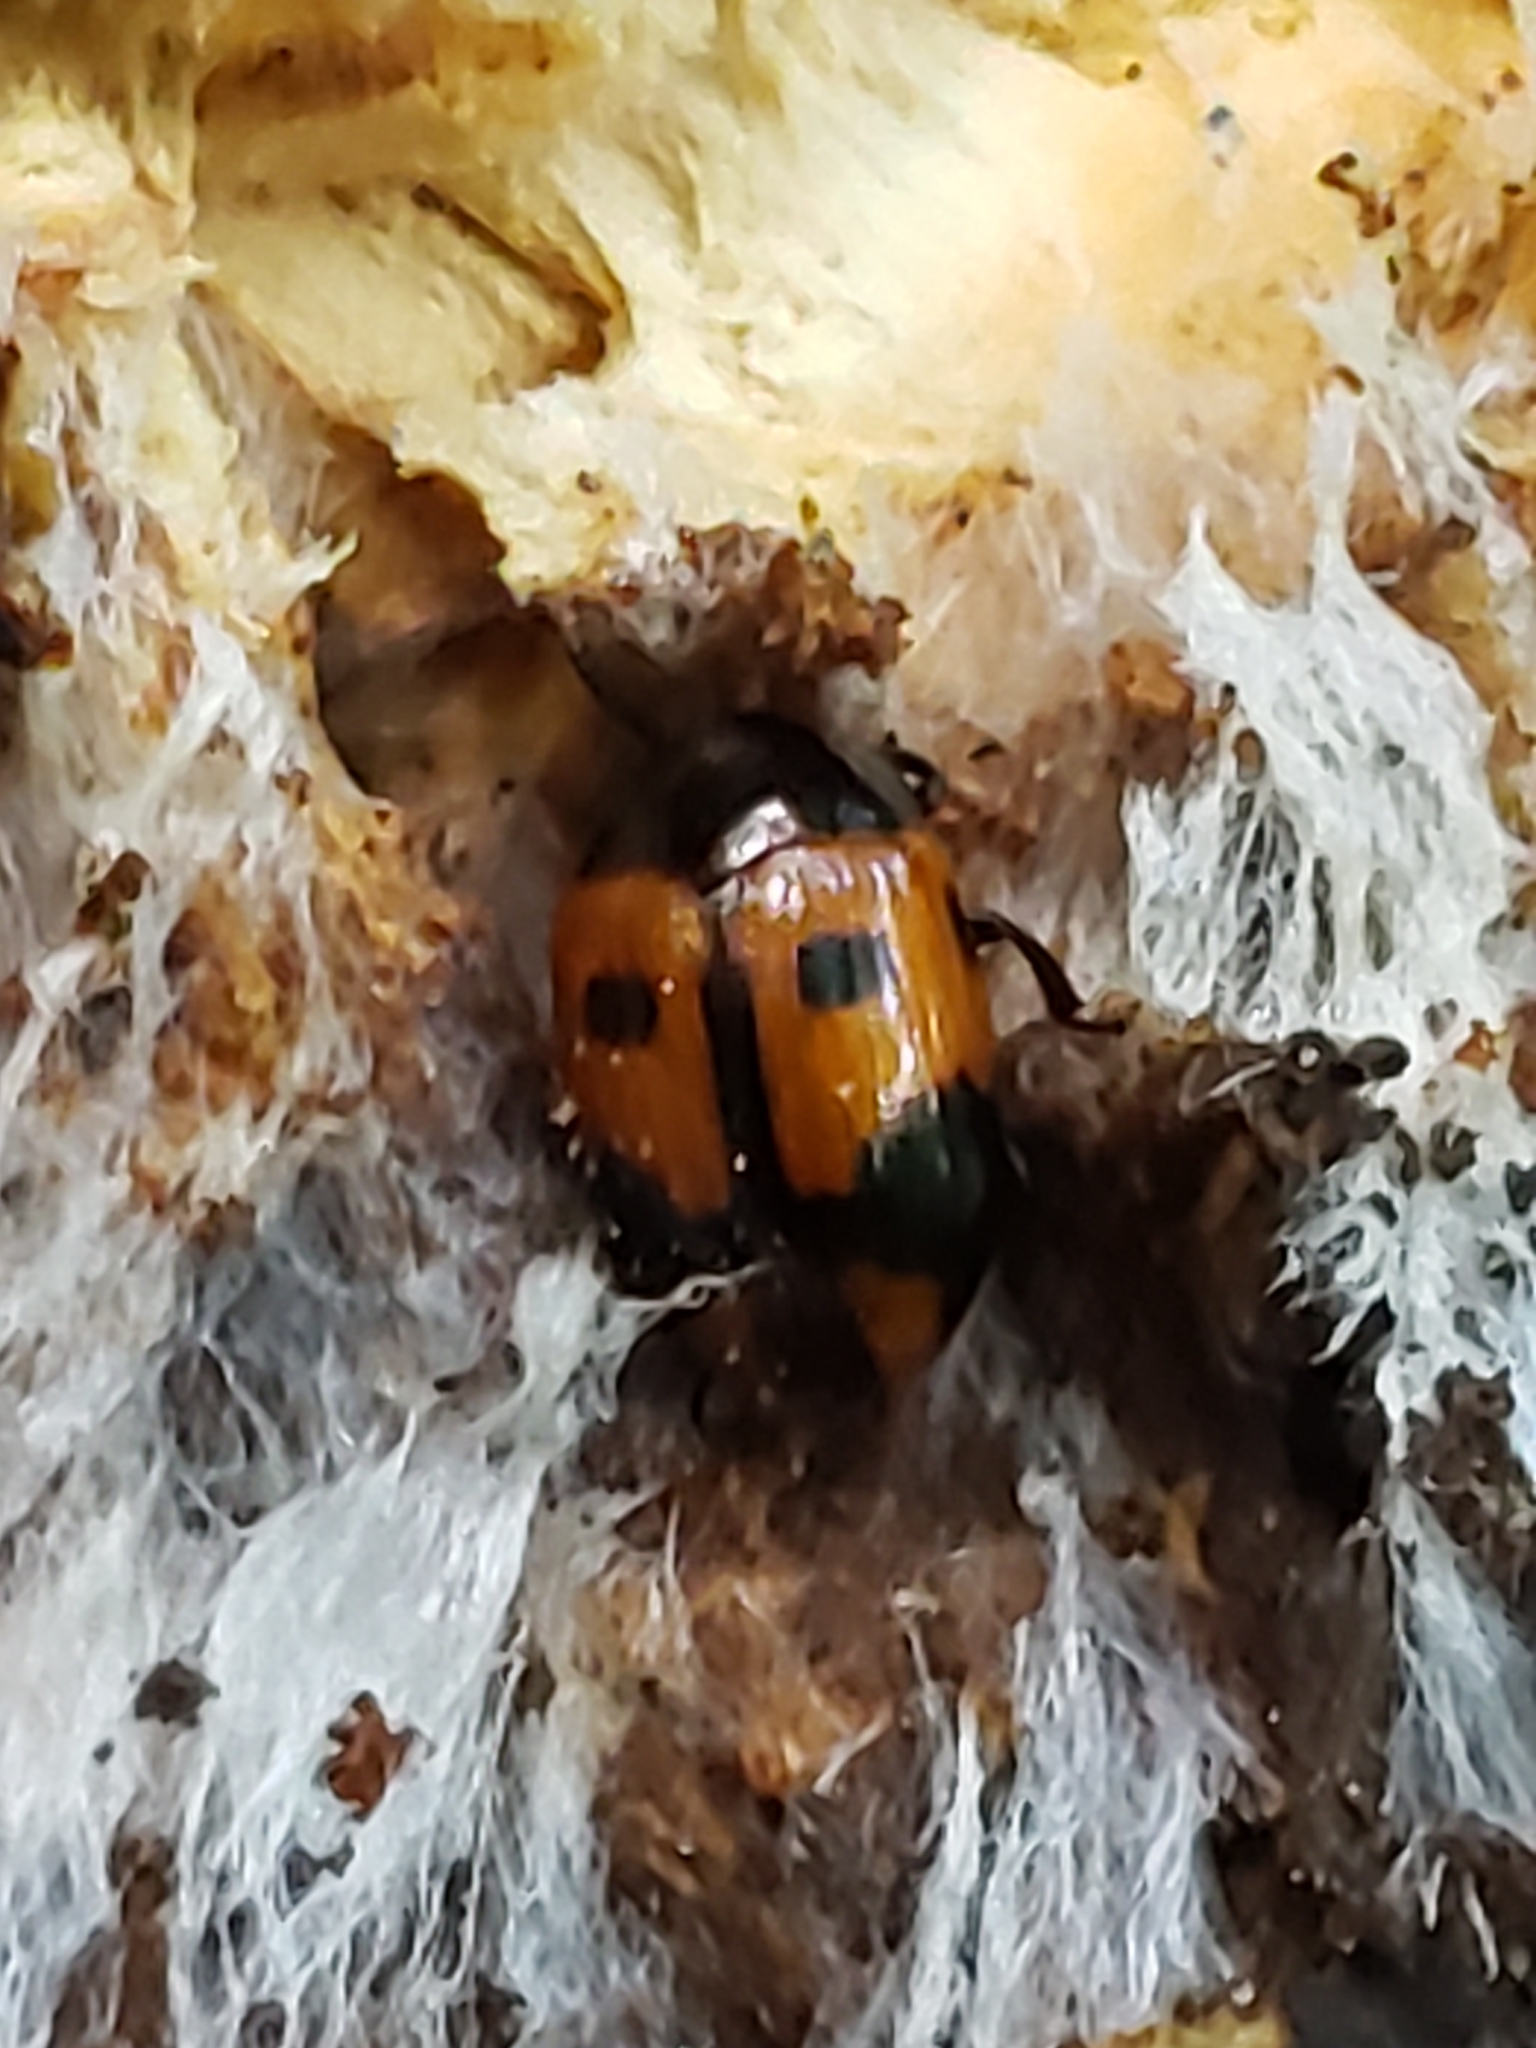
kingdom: Animalia
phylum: Arthropoda
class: Insecta
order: Coleoptera
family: Tenebrionidae
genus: Diaperis
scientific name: Diaperis maculata
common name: Darkling beetle
